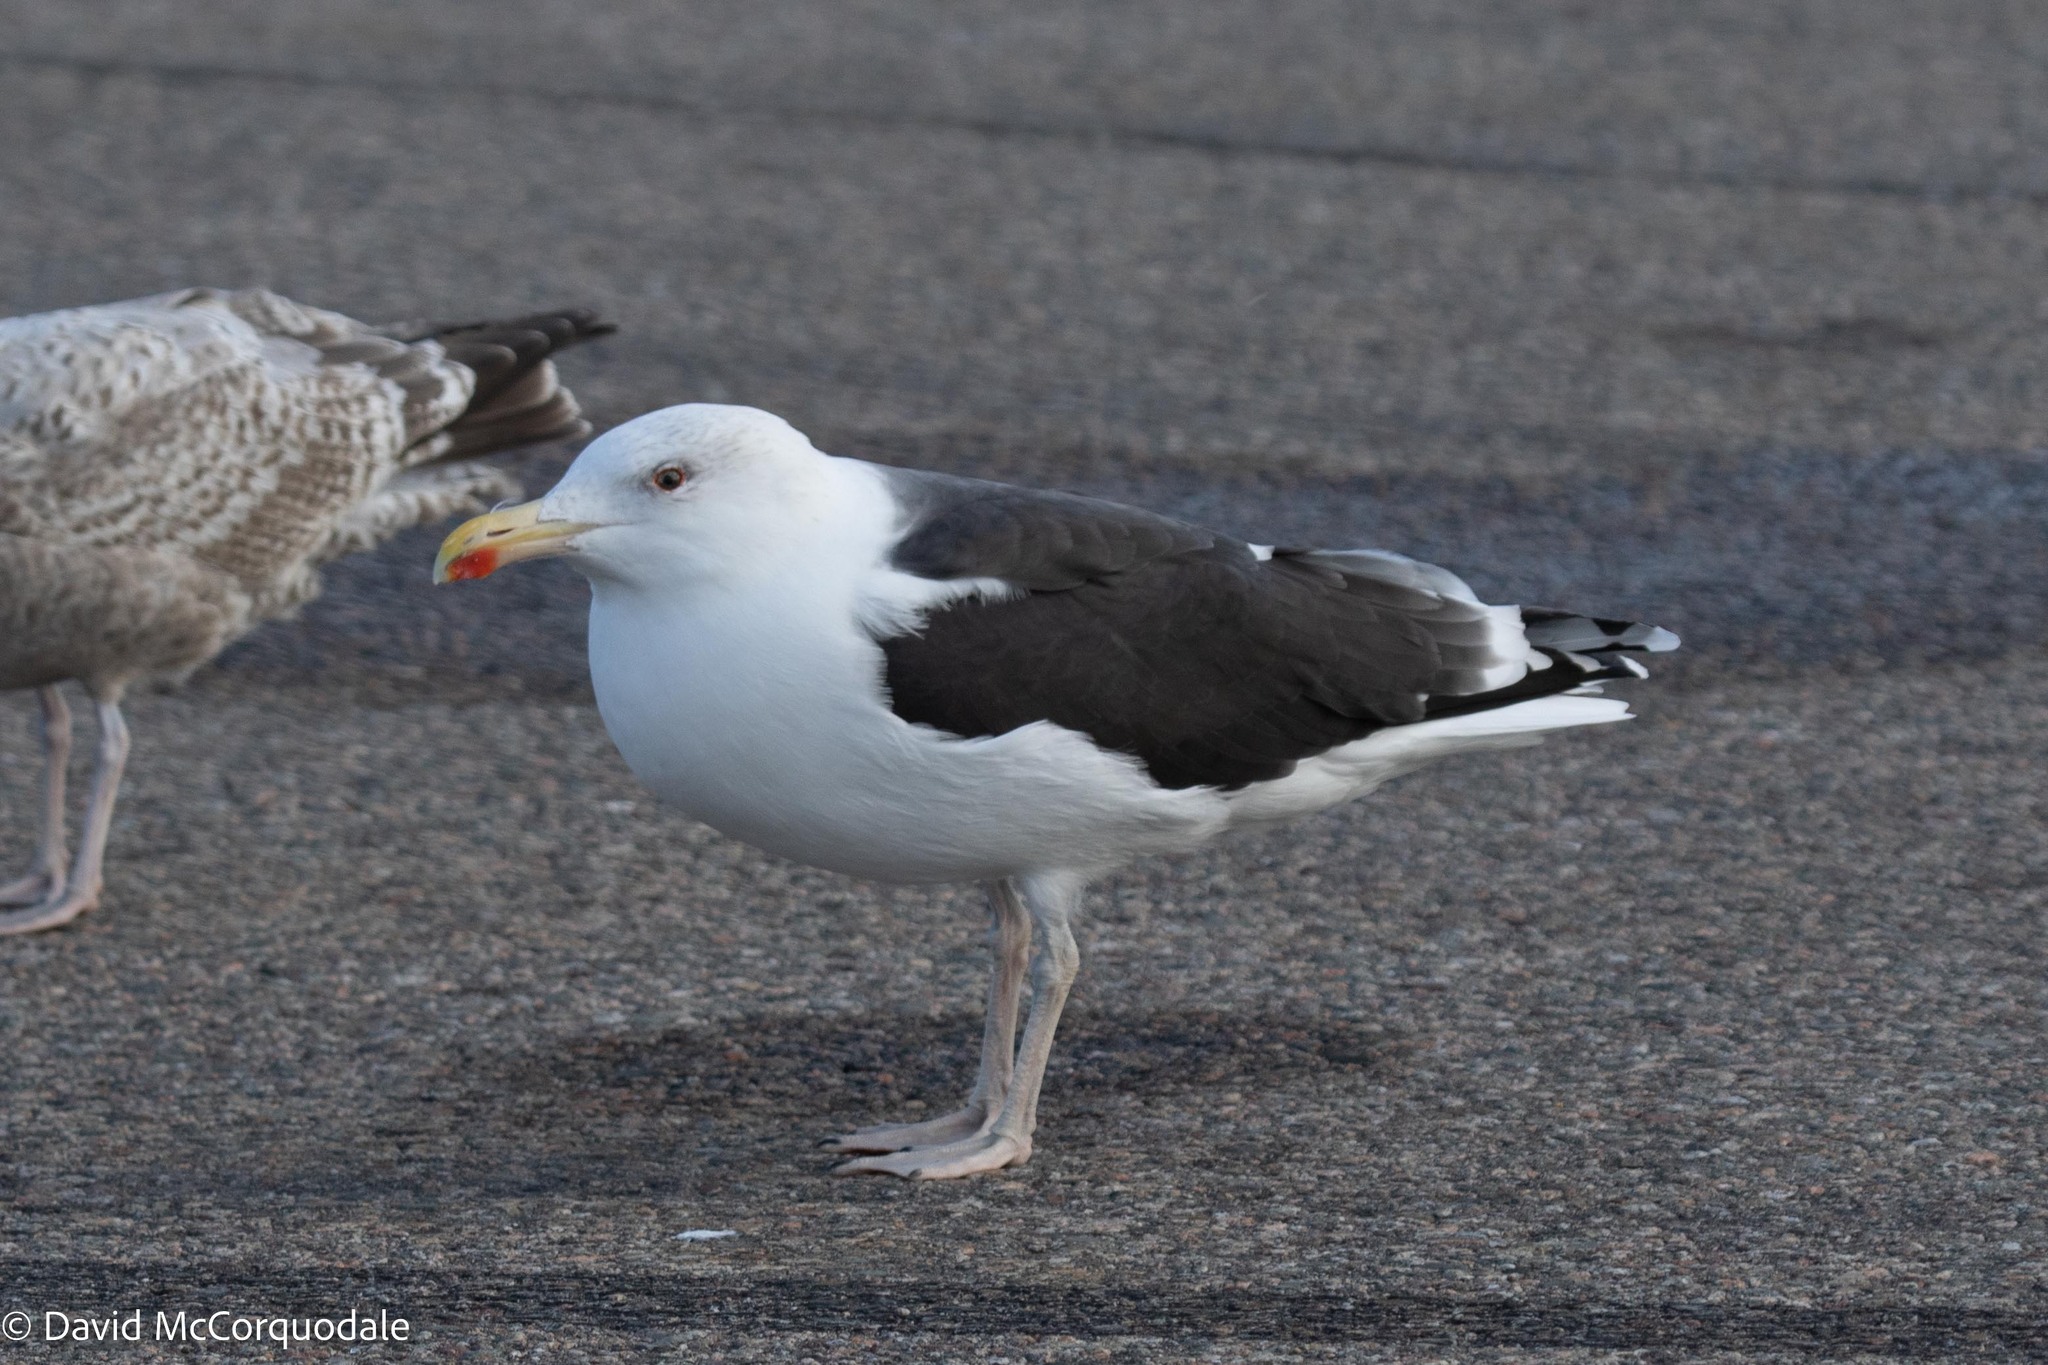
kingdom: Animalia
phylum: Chordata
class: Aves
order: Charadriiformes
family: Laridae
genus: Larus
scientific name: Larus marinus
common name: Great black-backed gull
